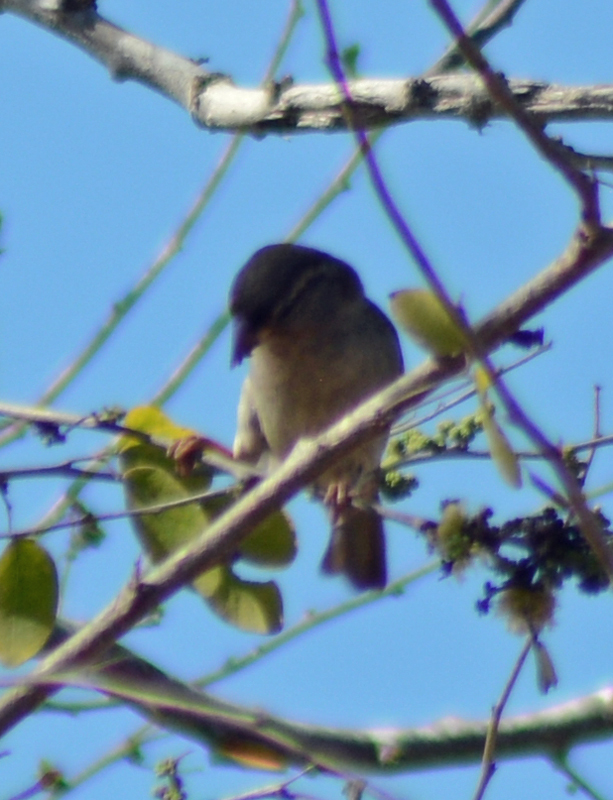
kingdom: Animalia
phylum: Chordata
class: Aves
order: Passeriformes
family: Passeridae
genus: Passer
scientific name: Passer domesticus
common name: House sparrow
